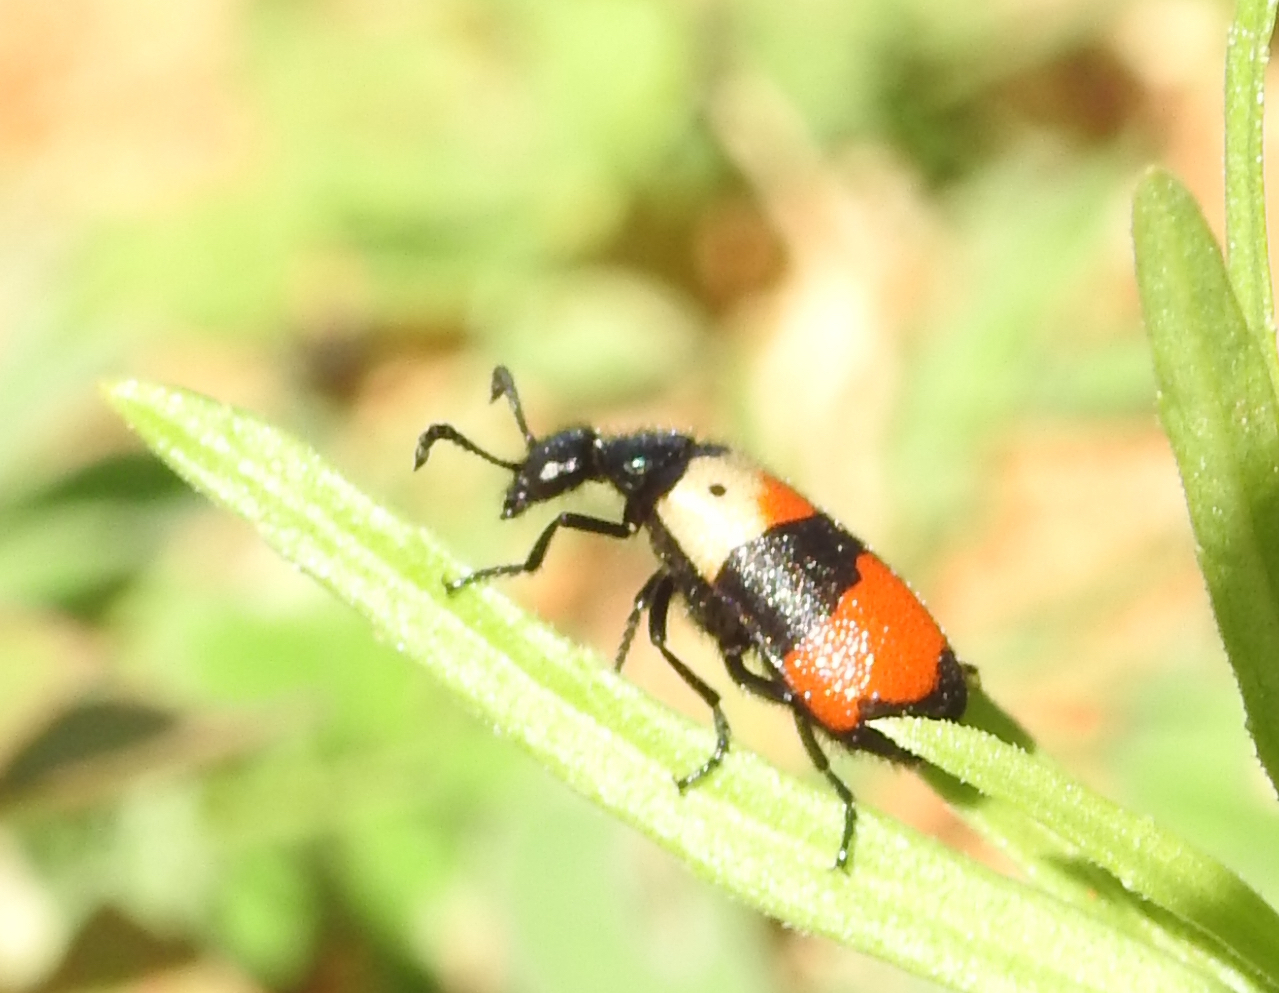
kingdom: Animalia
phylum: Arthropoda
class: Insecta
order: Coleoptera
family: Meloidae
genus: Hycleus
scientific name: Hycleus
